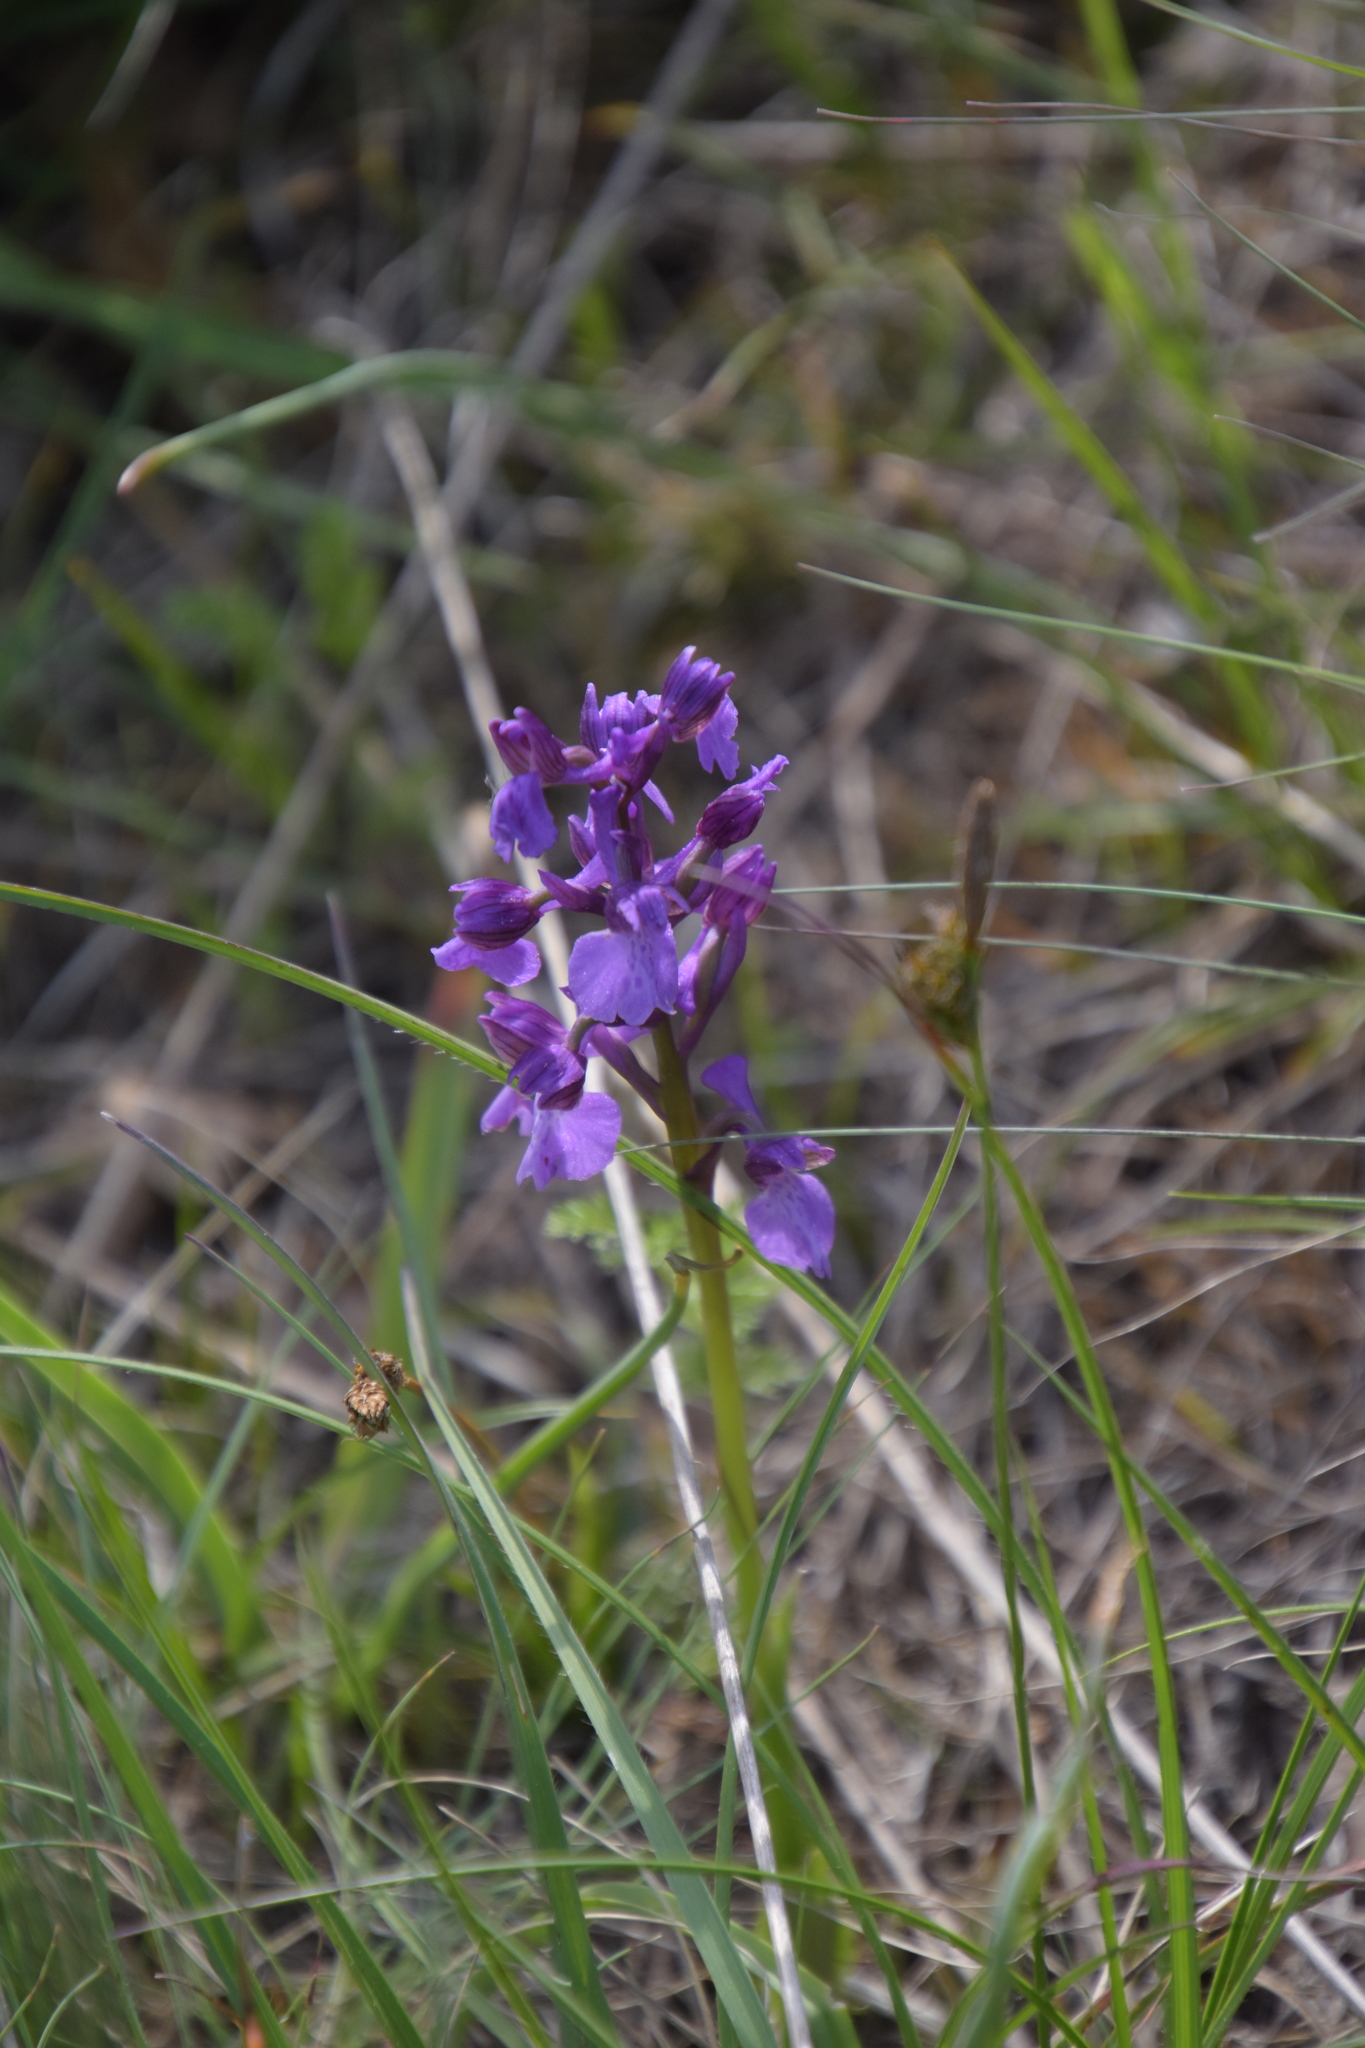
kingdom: Plantae
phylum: Tracheophyta
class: Liliopsida
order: Asparagales
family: Orchidaceae
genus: Anacamptis
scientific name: Anacamptis morio
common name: Green-winged orchid
